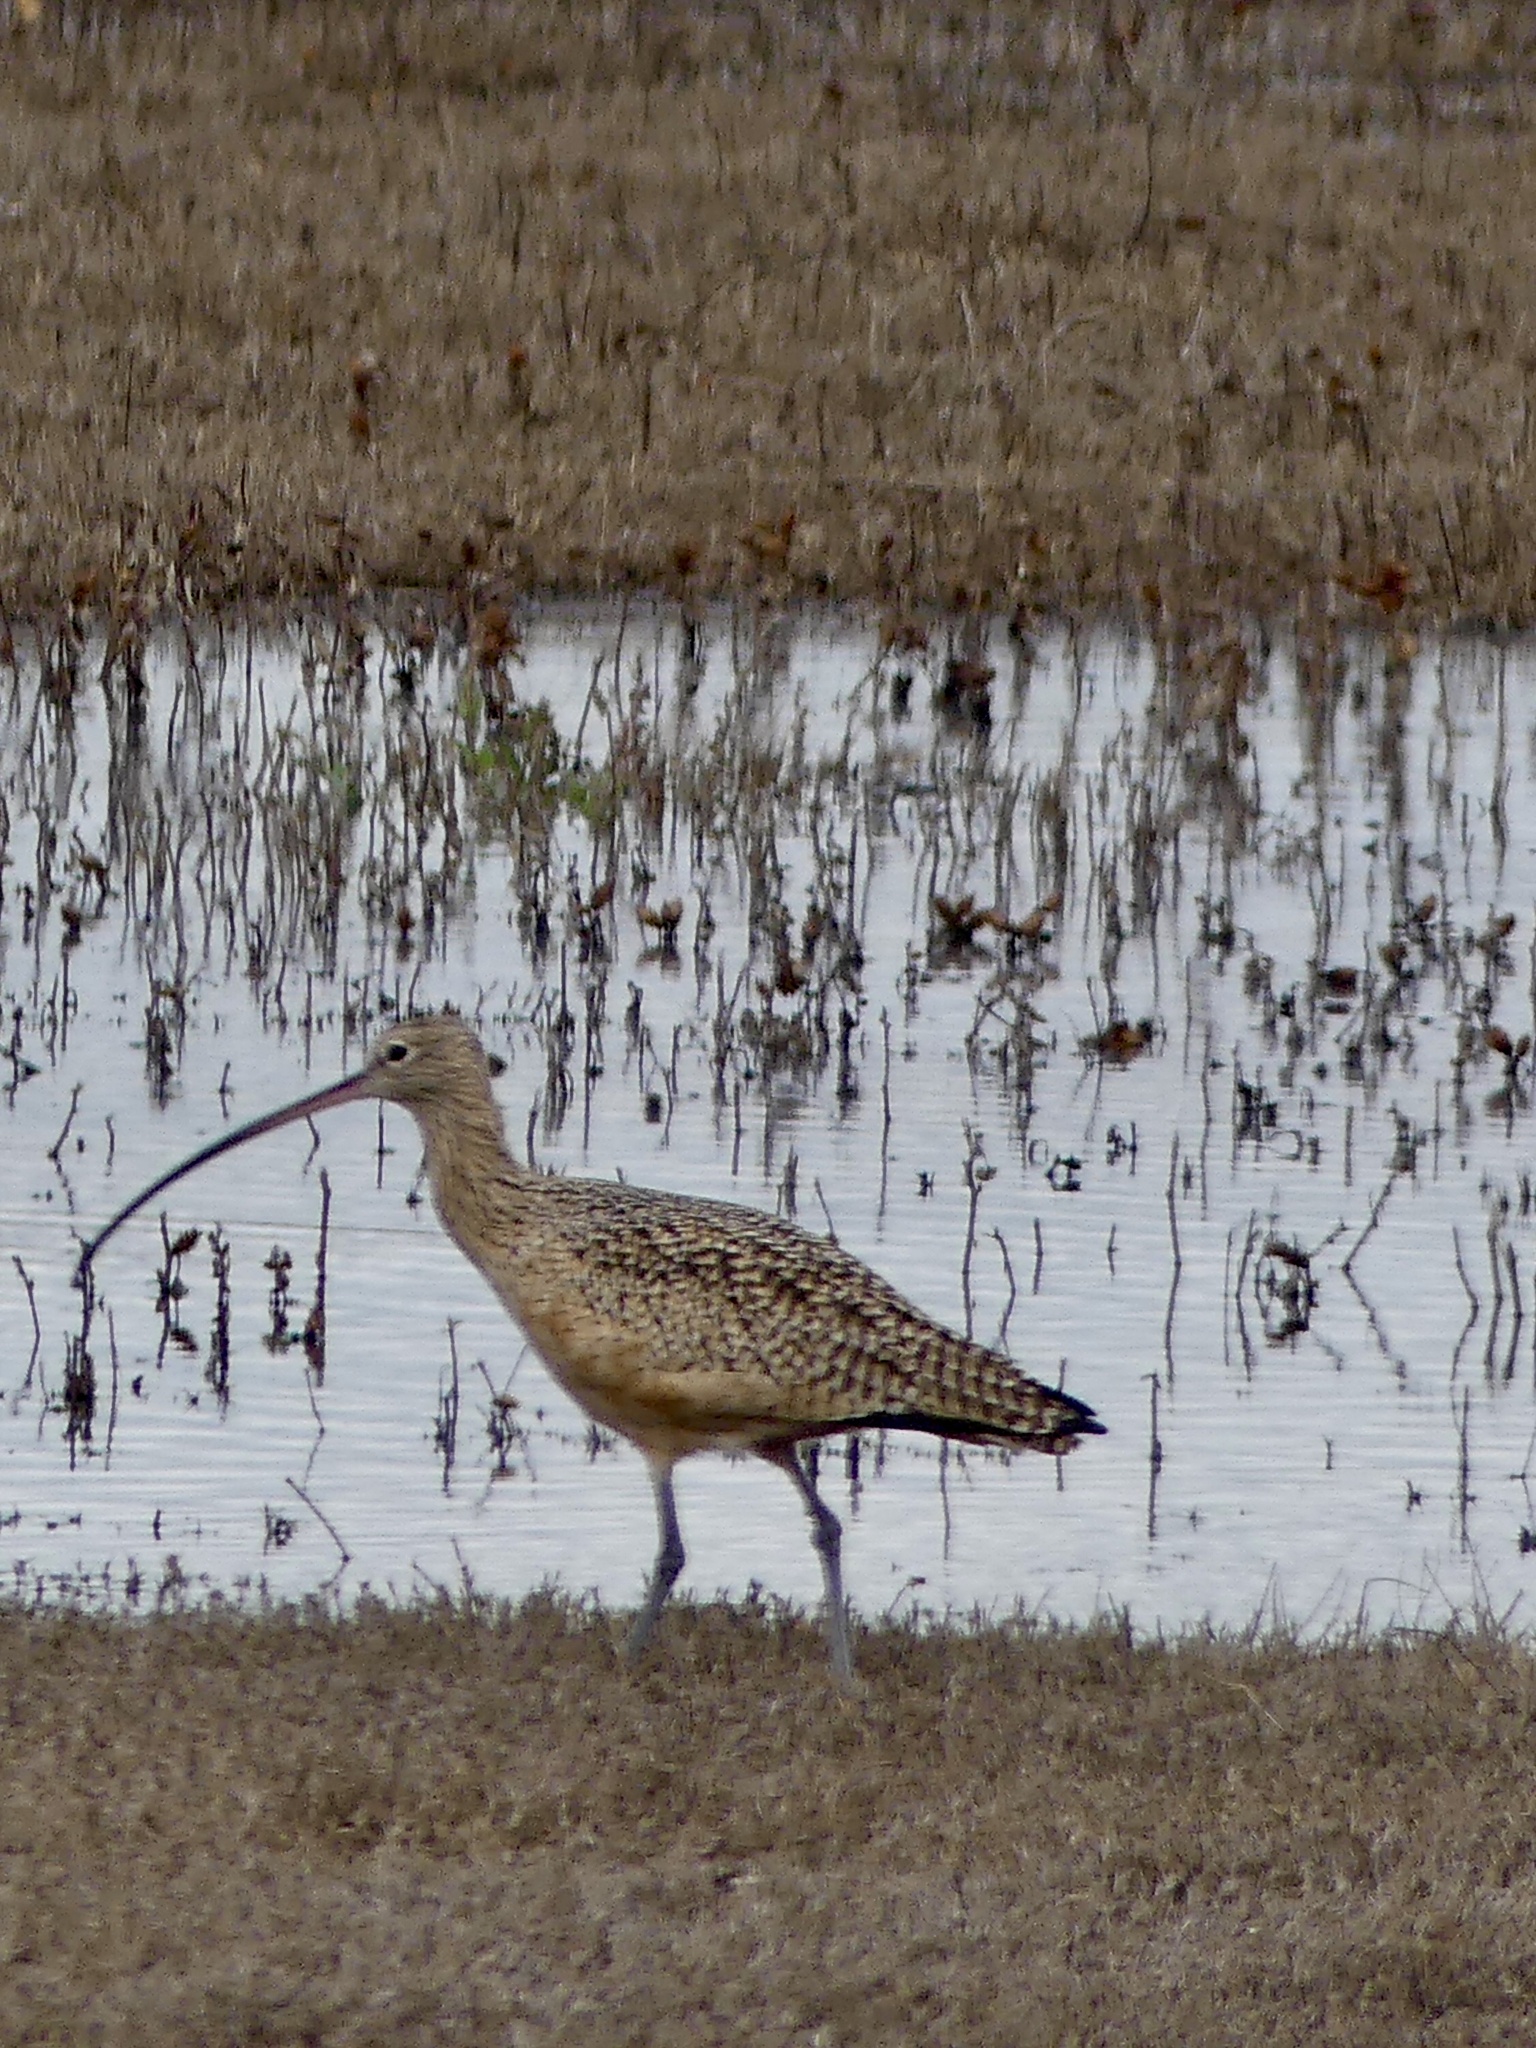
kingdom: Animalia
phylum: Chordata
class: Aves
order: Charadriiformes
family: Scolopacidae
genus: Numenius
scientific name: Numenius americanus
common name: Long-billed curlew
